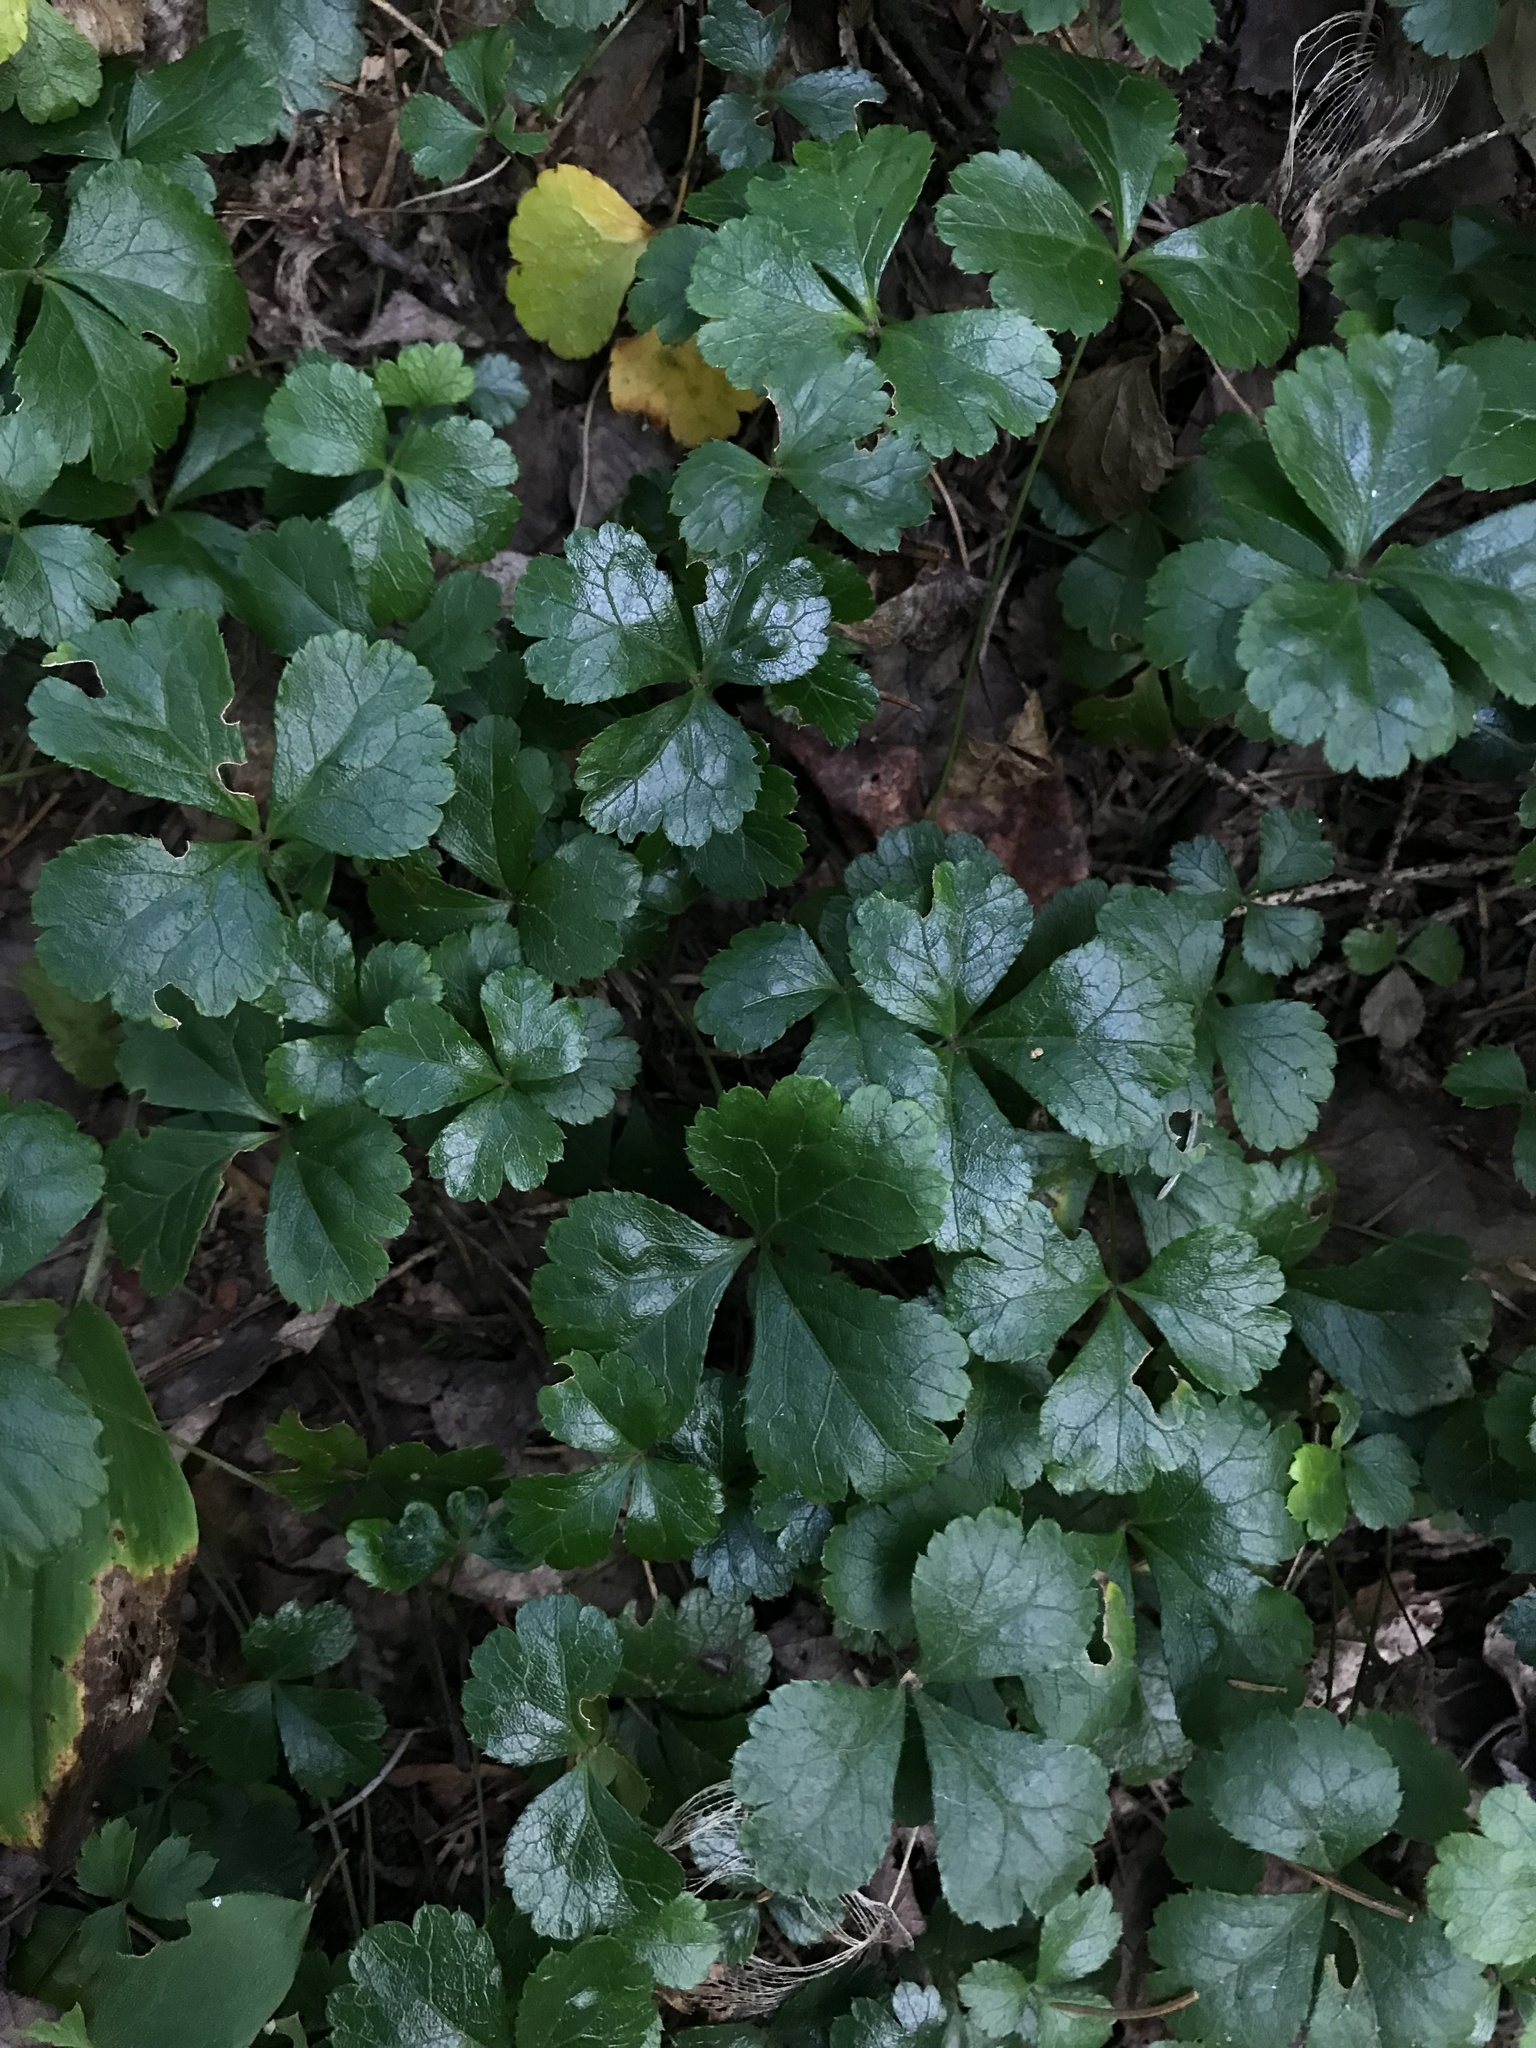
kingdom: Plantae
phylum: Tracheophyta
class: Magnoliopsida
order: Ranunculales
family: Ranunculaceae
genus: Coptis
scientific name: Coptis trifolia
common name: Canker-root
